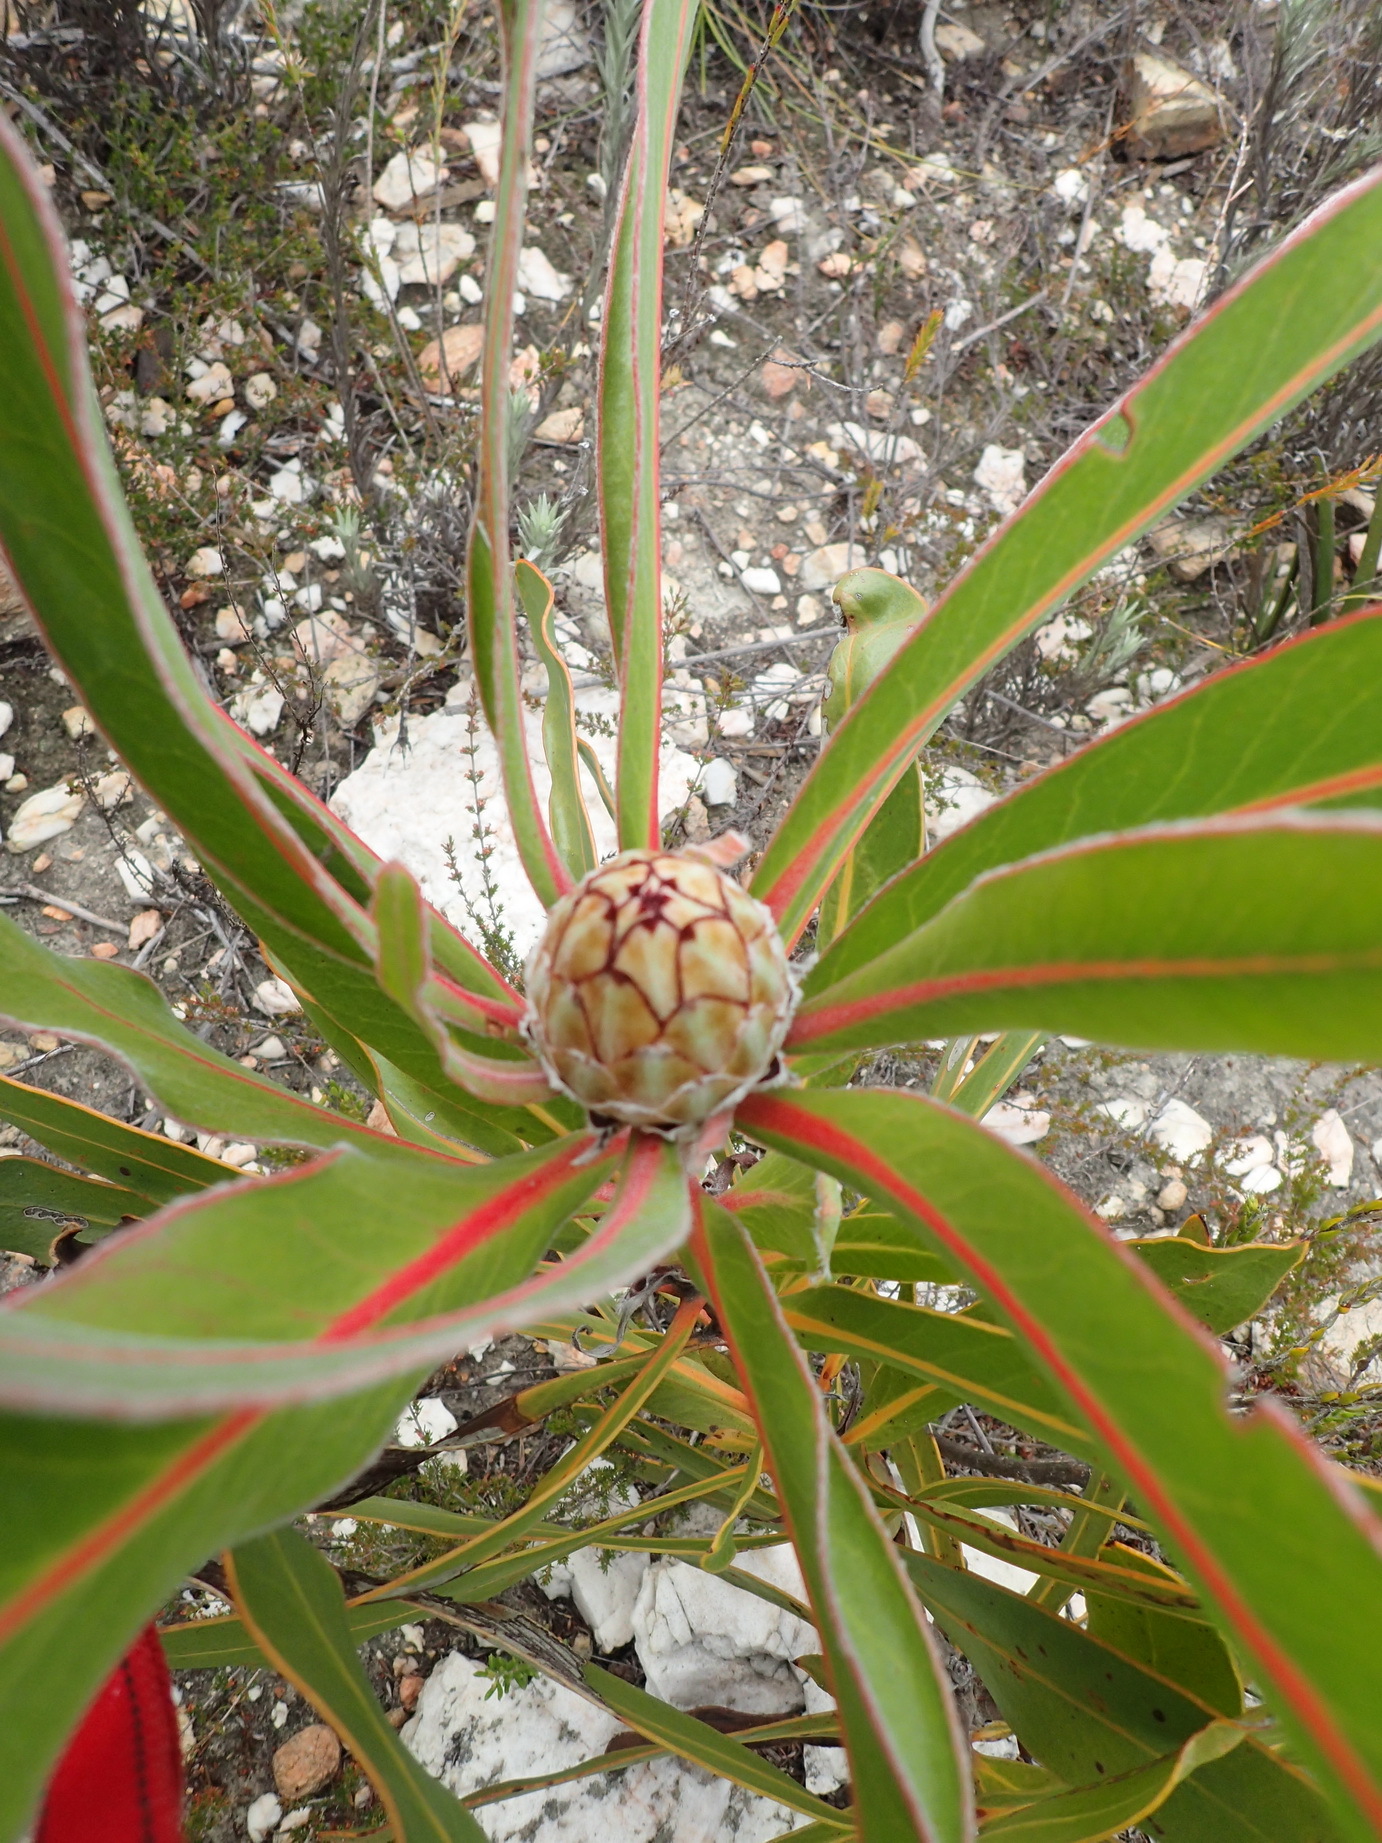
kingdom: Plantae
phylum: Tracheophyta
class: Magnoliopsida
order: Proteales
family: Proteaceae
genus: Protea
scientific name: Protea lorifolia
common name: Strap-leaved protea
